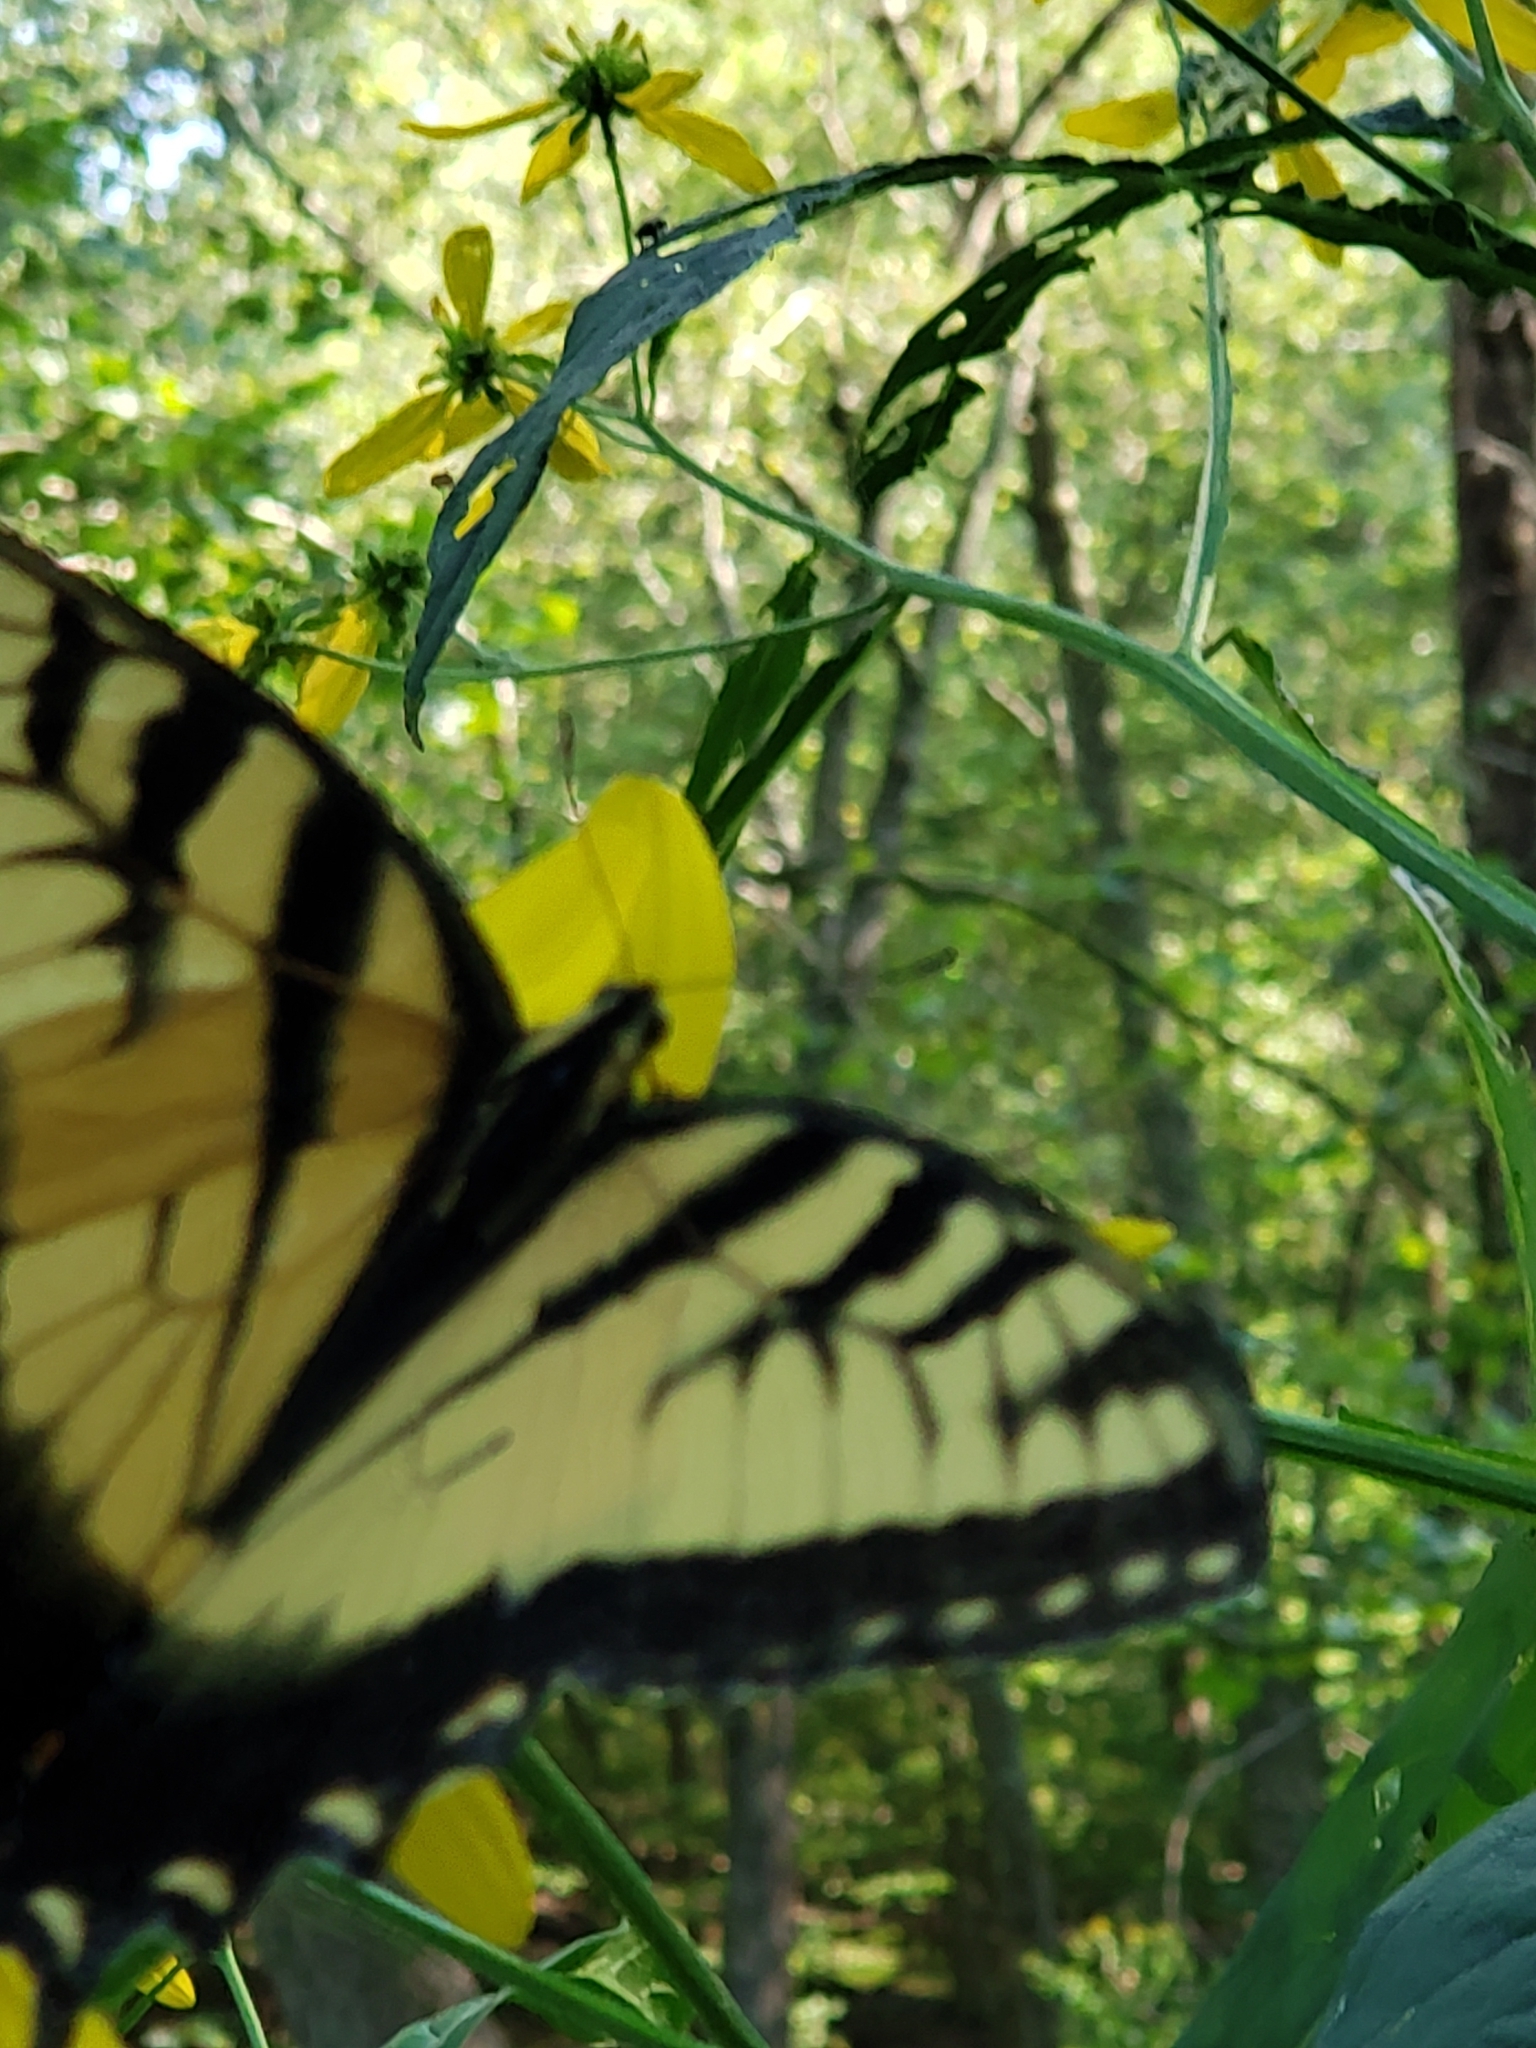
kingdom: Animalia
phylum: Arthropoda
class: Insecta
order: Lepidoptera
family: Papilionidae
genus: Papilio
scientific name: Papilio glaucus
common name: Tiger swallowtail
